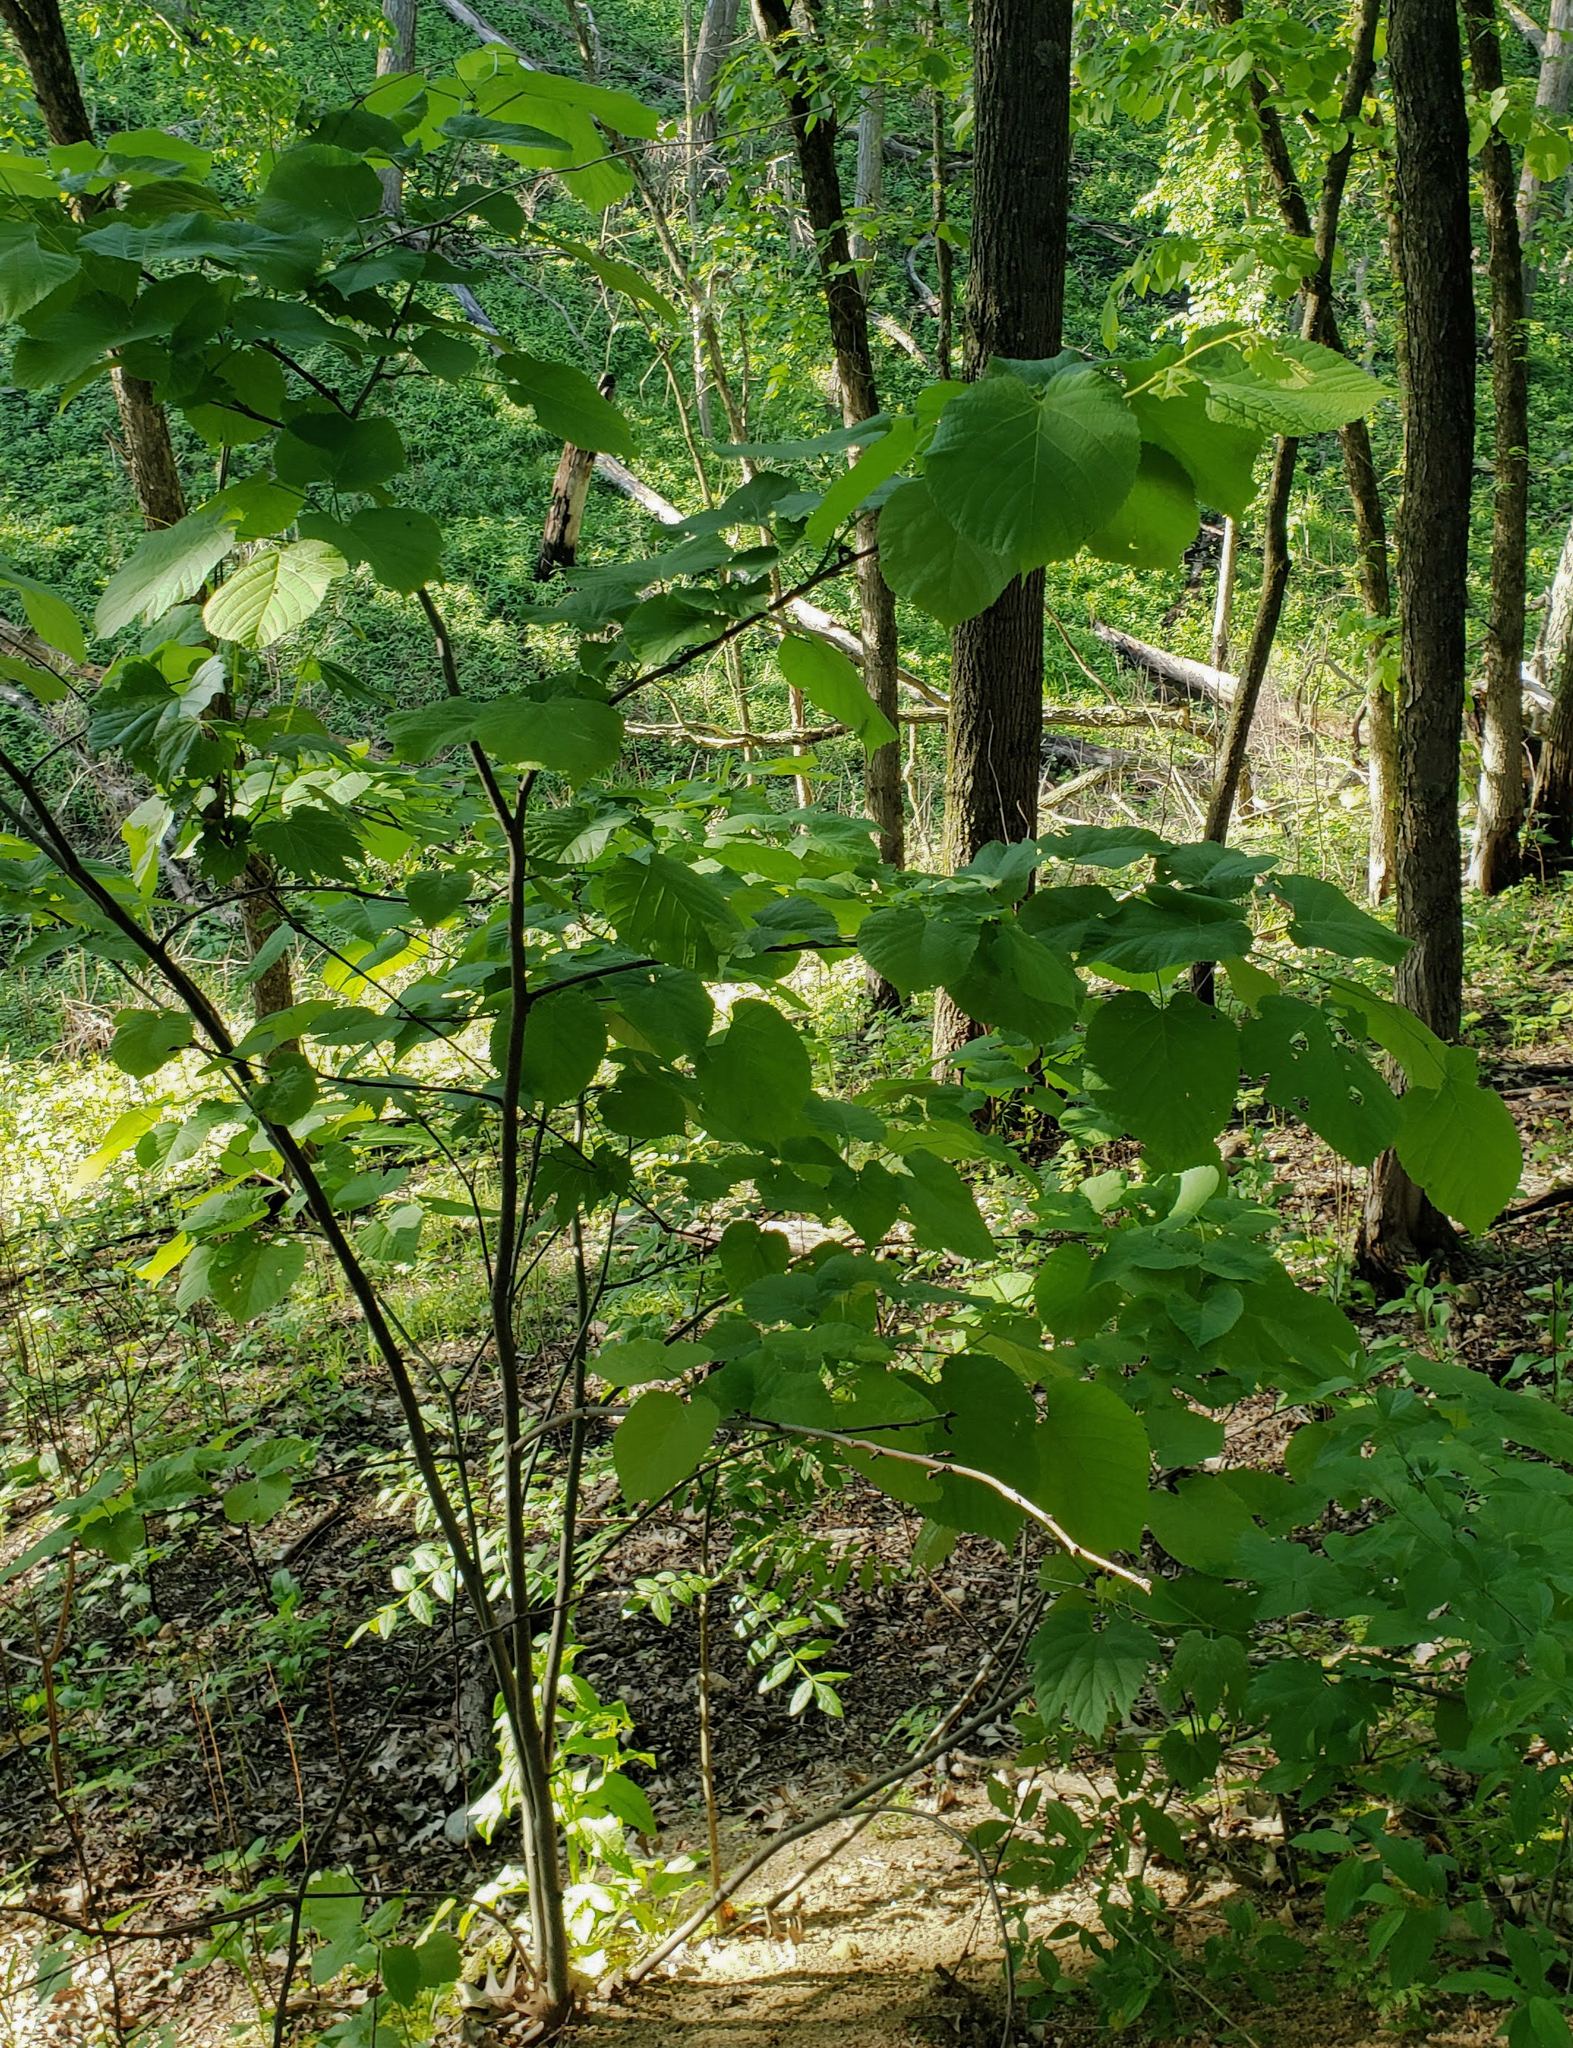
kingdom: Plantae
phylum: Tracheophyta
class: Magnoliopsida
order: Malvales
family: Malvaceae
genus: Tilia
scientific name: Tilia americana
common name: Basswood
